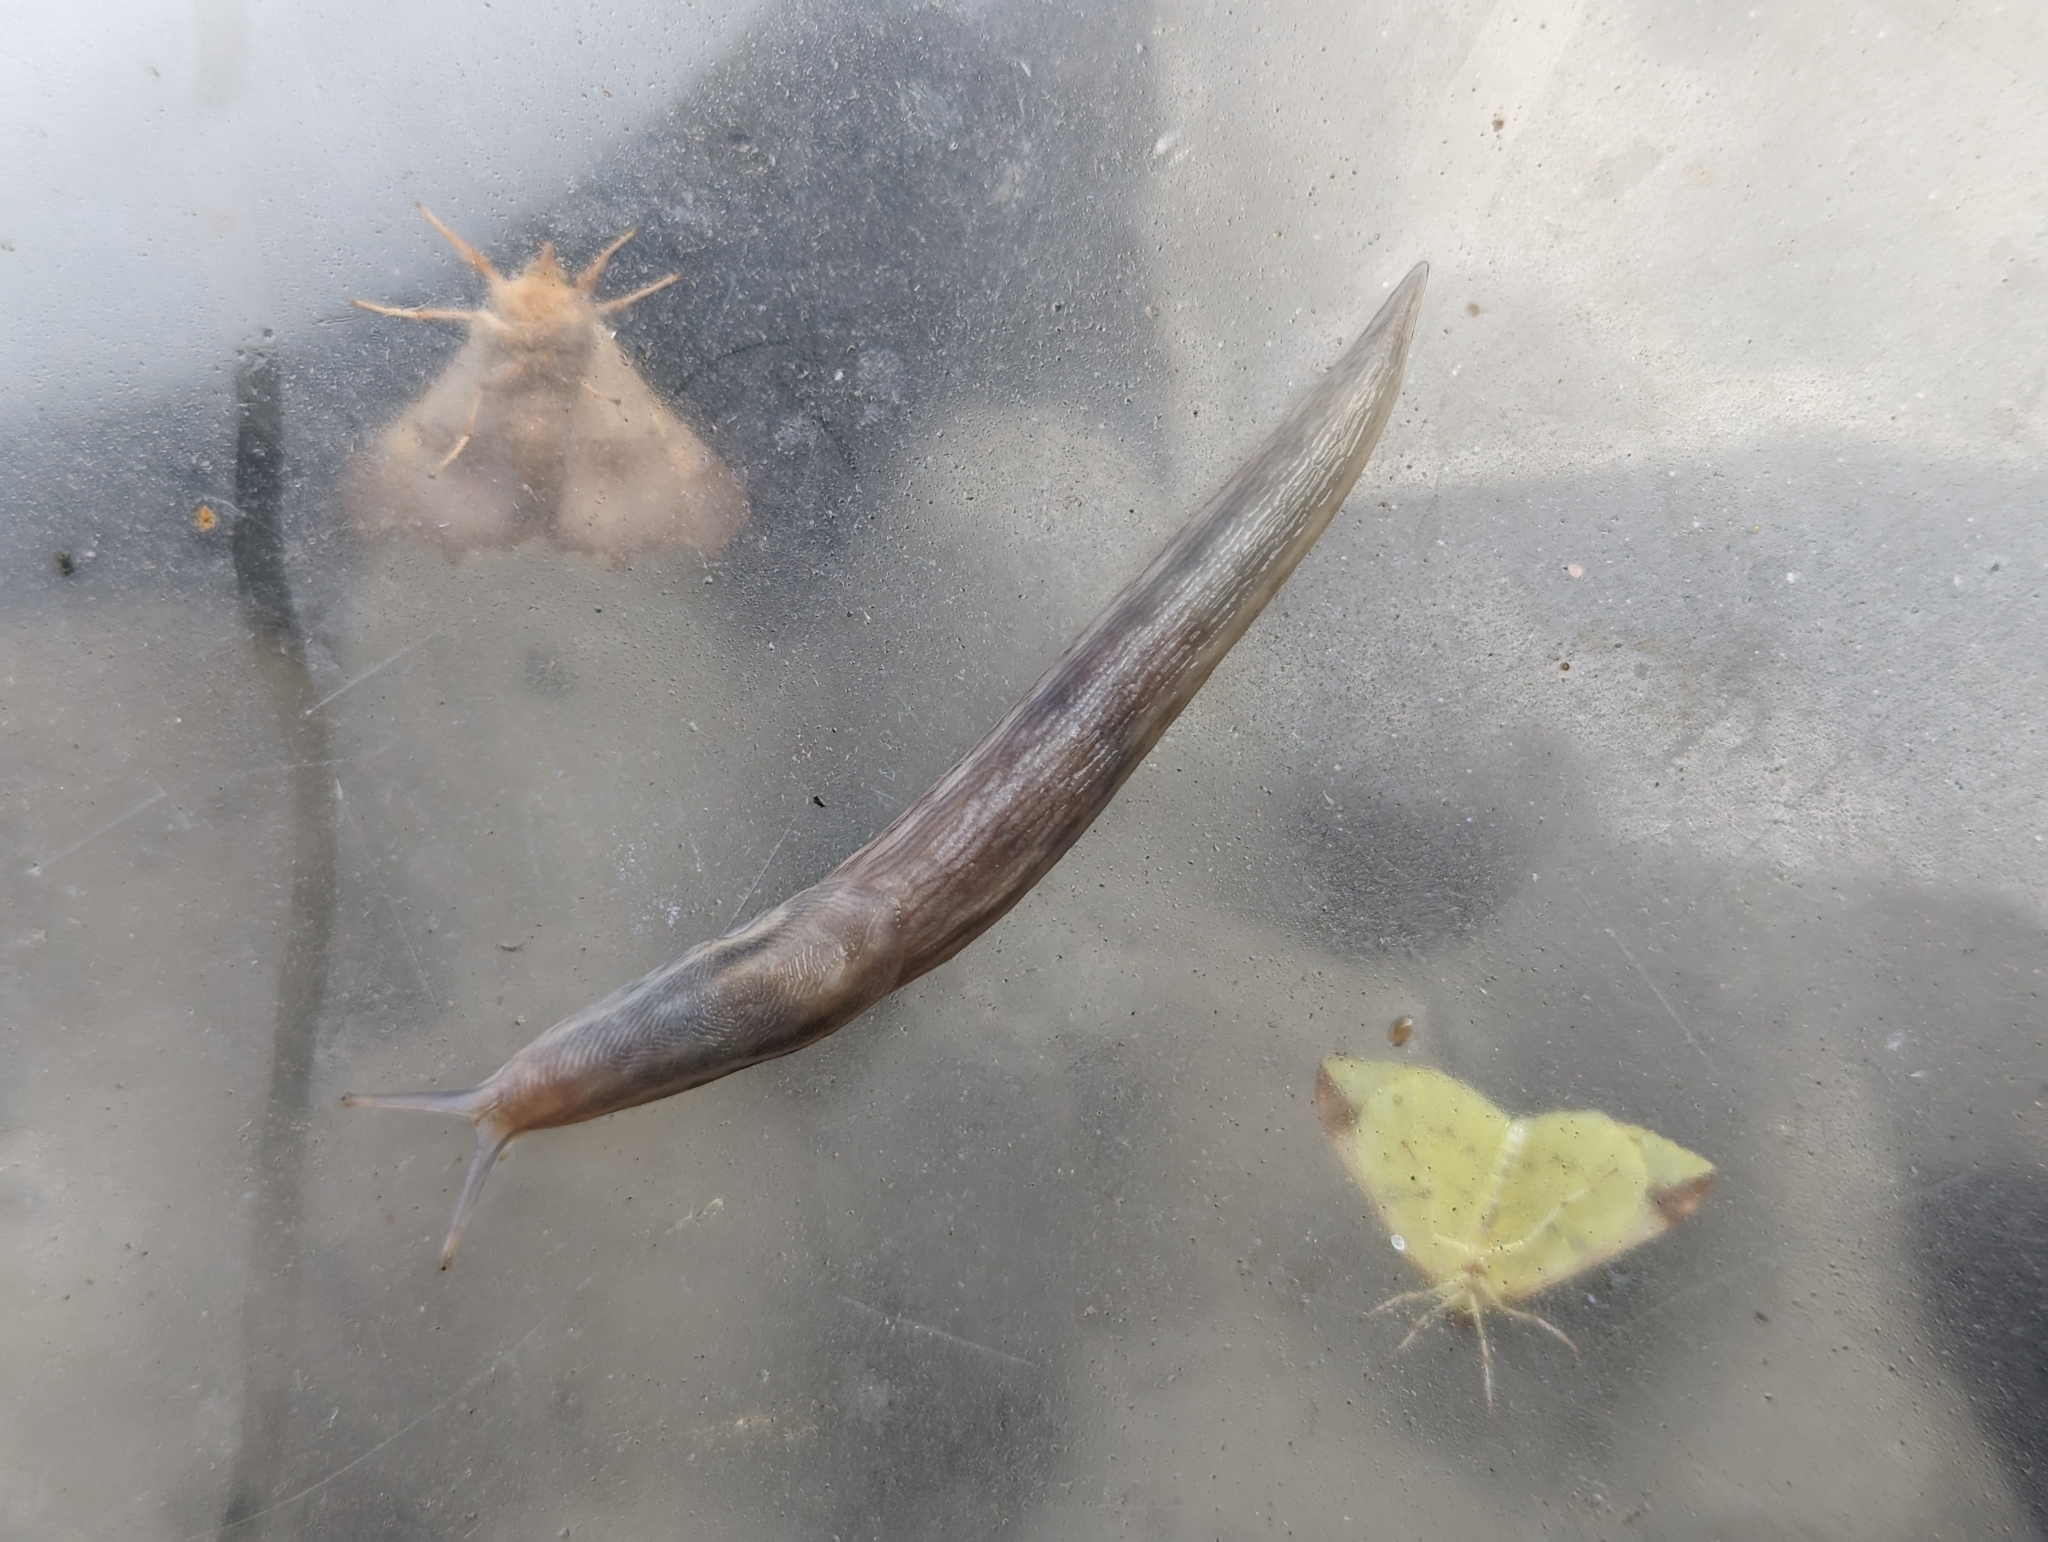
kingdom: Animalia
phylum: Mollusca
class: Gastropoda
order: Stylommatophora
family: Limacidae
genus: Lehmannia
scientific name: Lehmannia marginata
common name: Tree slug
